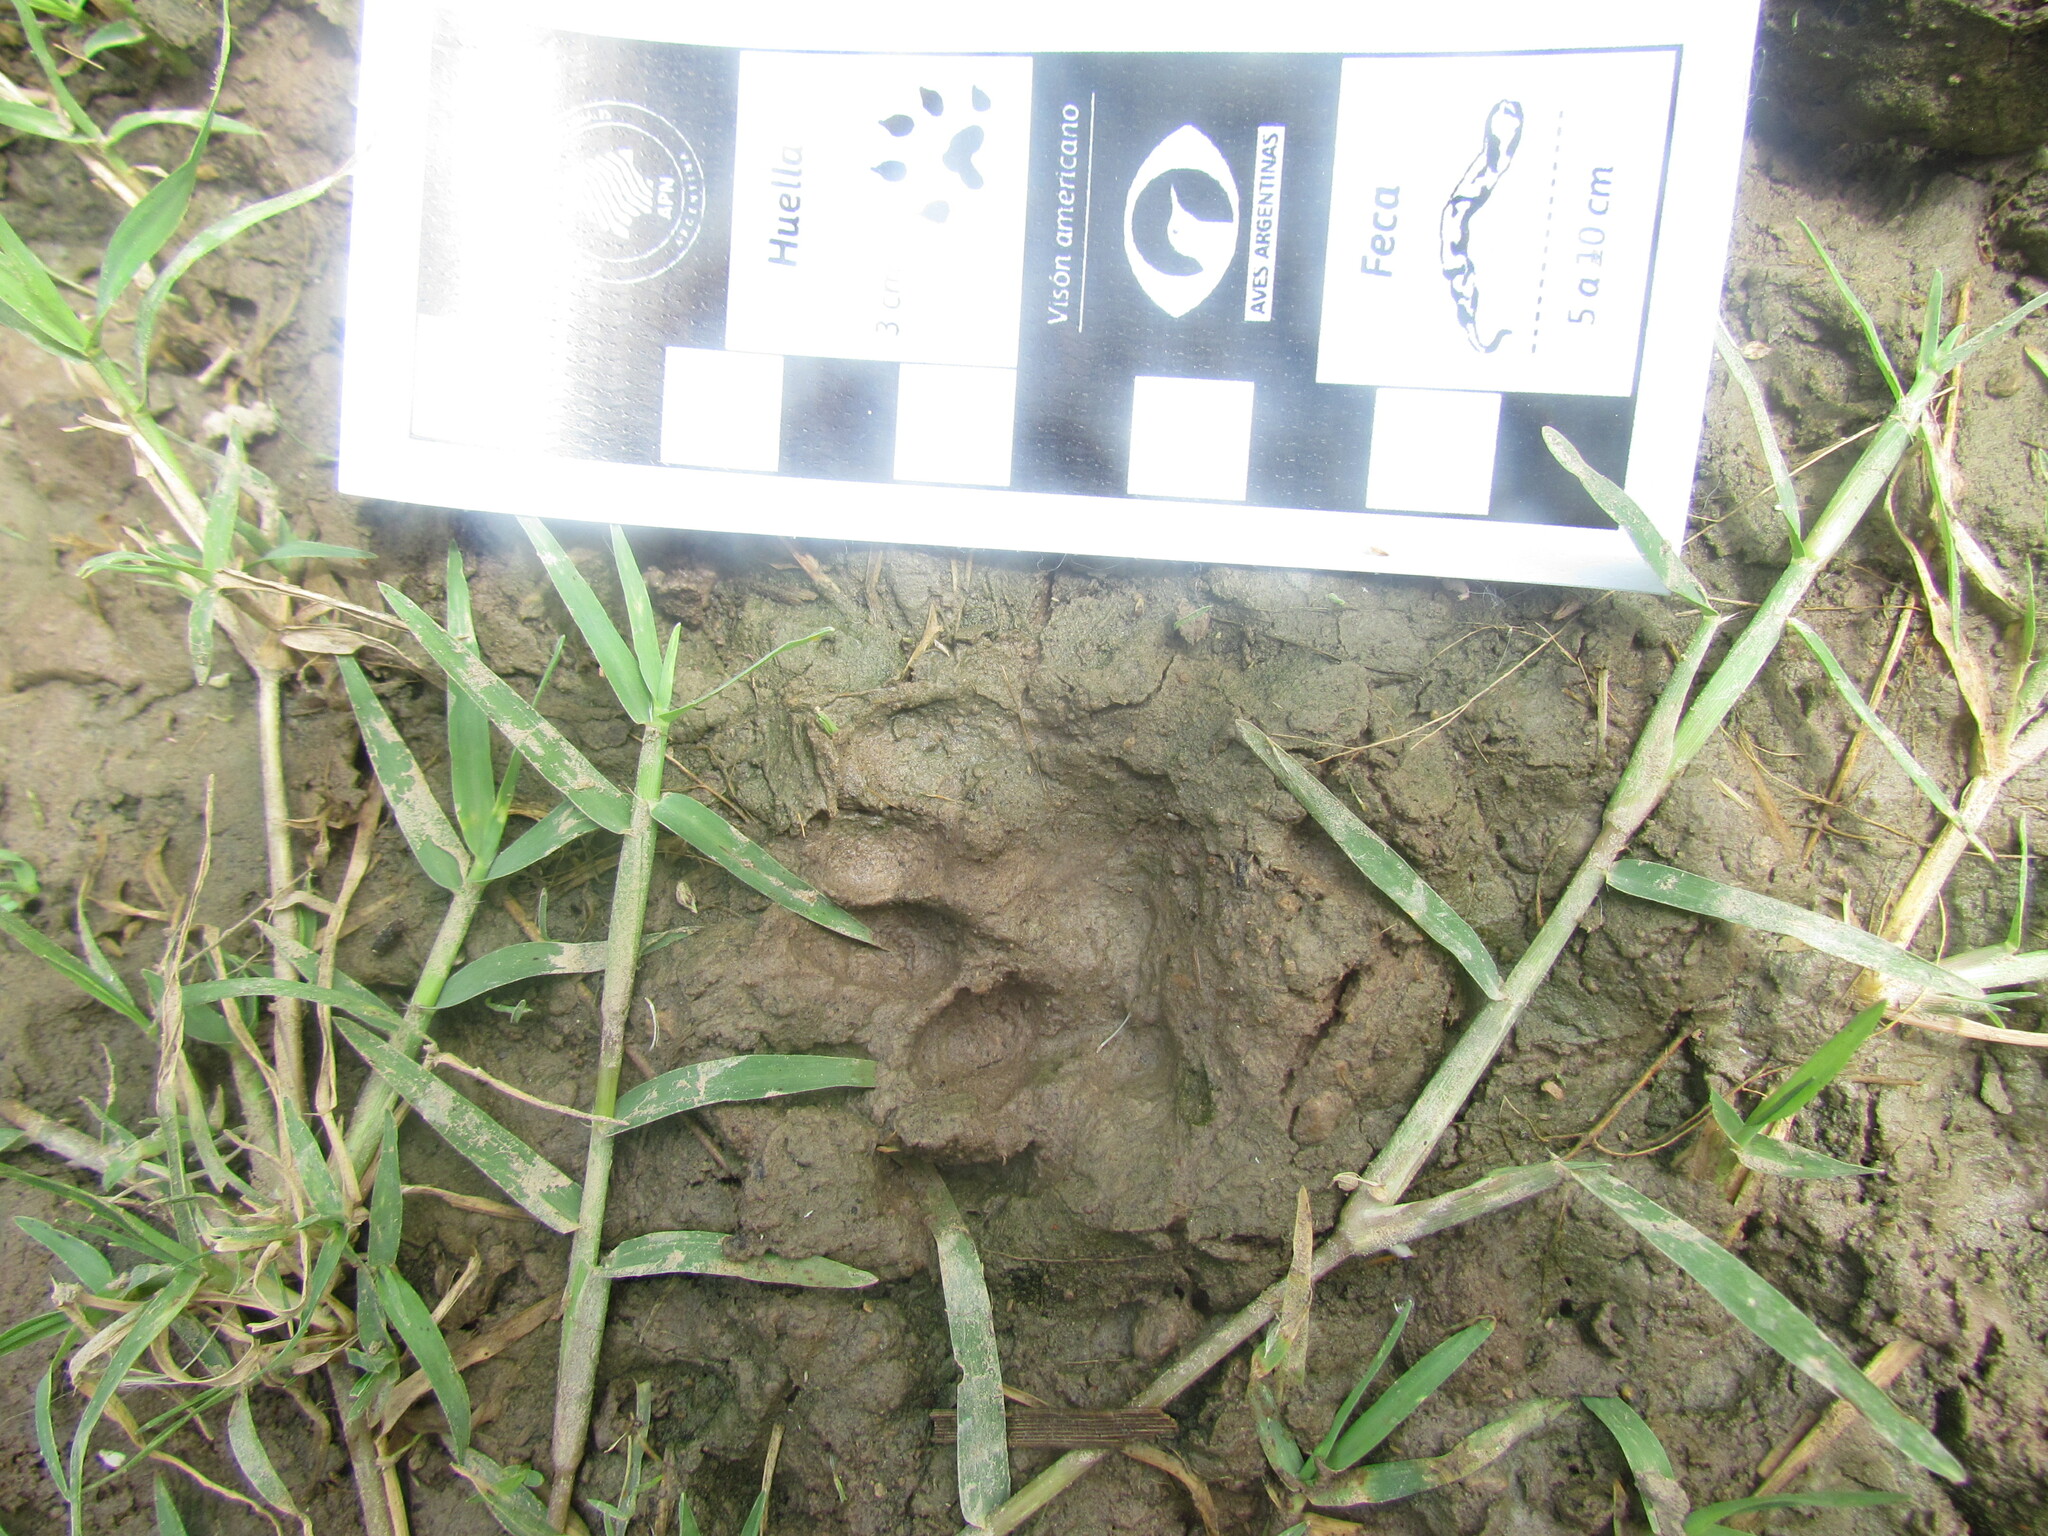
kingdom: Animalia
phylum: Chordata
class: Mammalia
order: Carnivora
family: Felidae
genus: Leopardus
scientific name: Leopardus geoffroyi
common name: Geoffroy's cat
